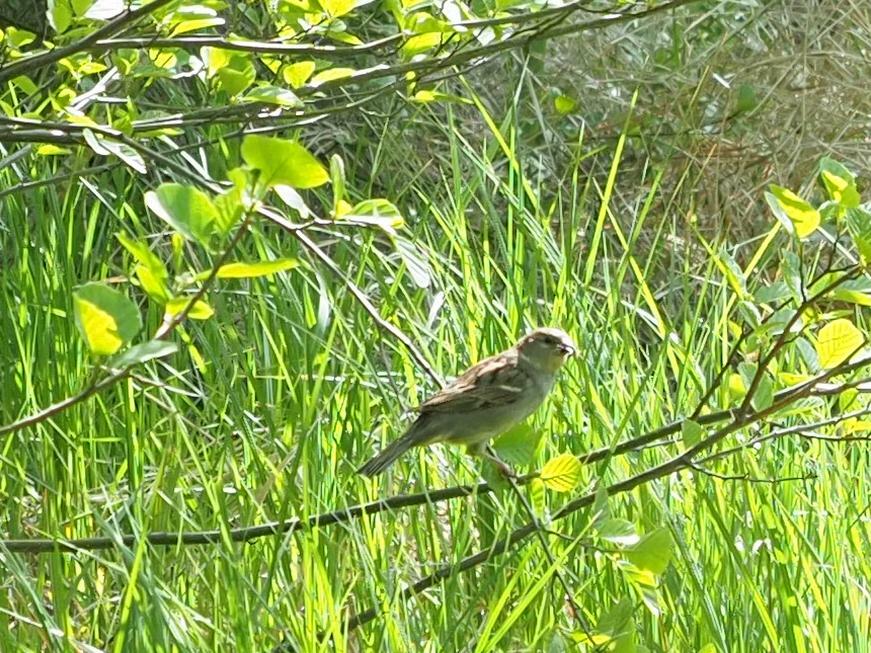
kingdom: Animalia
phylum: Chordata
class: Aves
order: Passeriformes
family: Passeridae
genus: Passer
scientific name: Passer domesticus
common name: House sparrow
